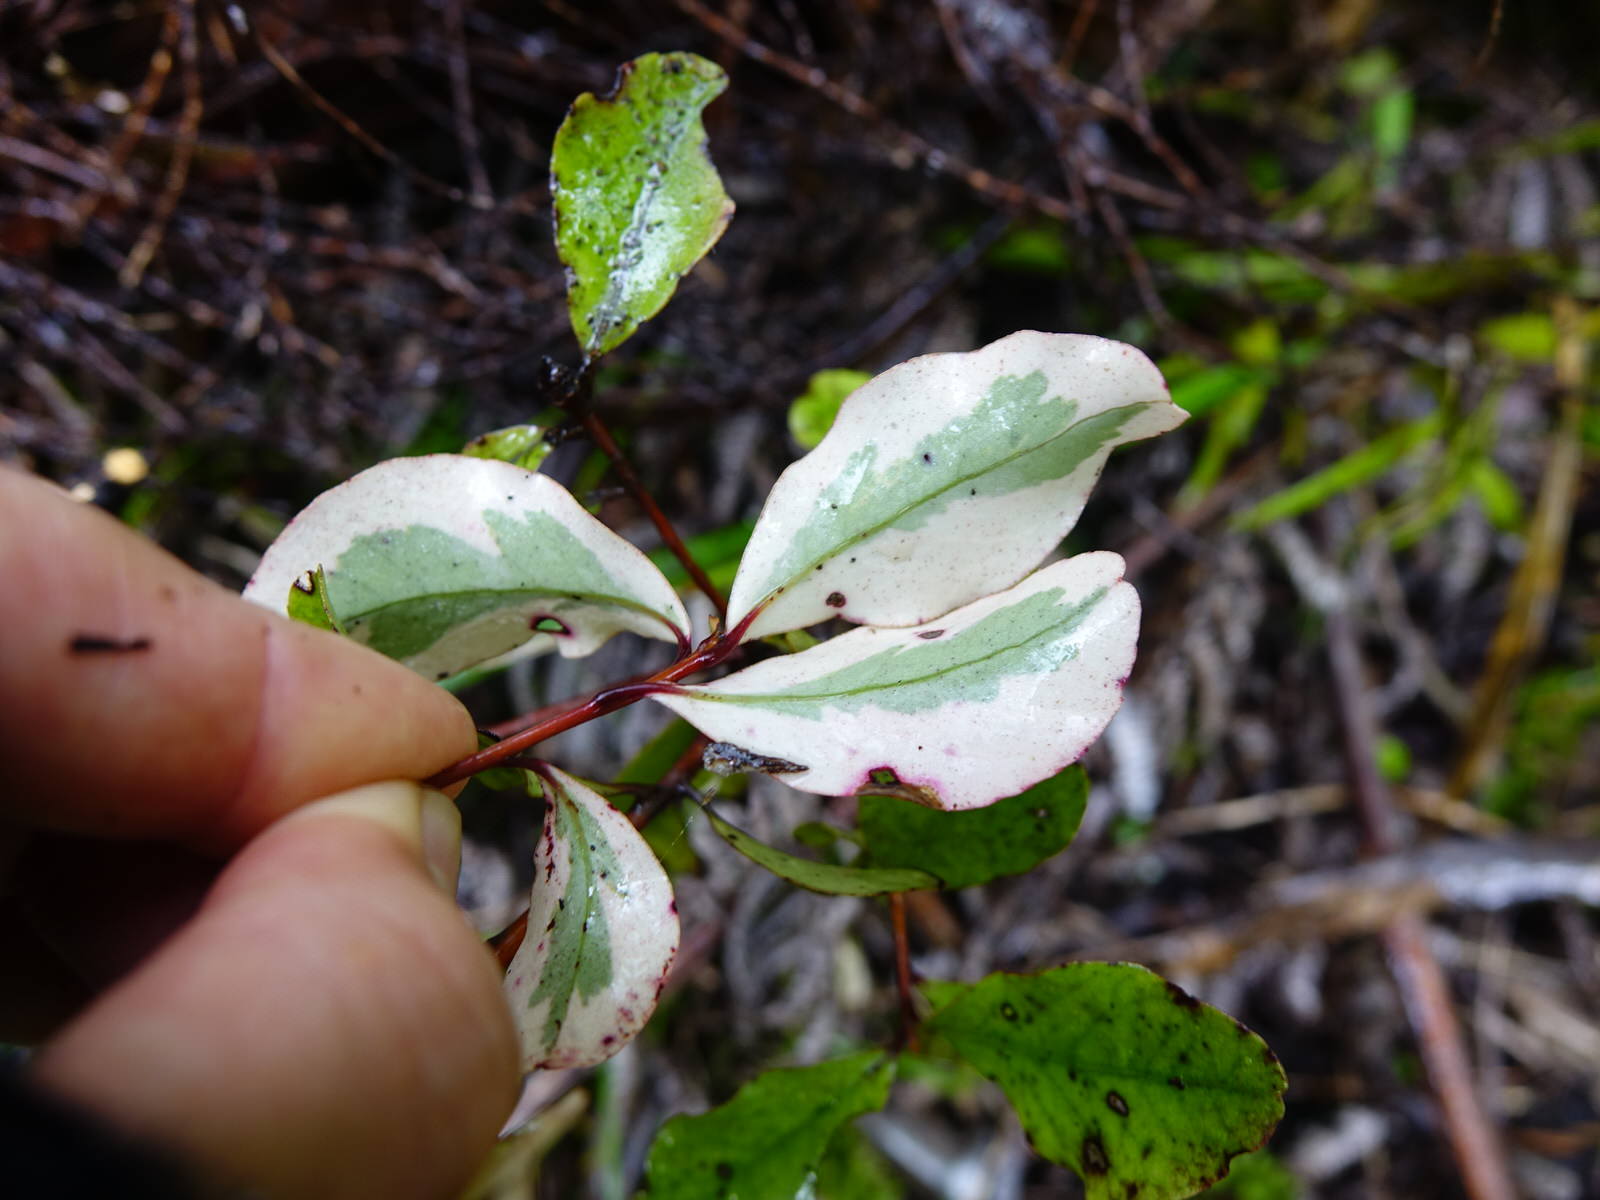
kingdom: Plantae
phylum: Tracheophyta
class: Magnoliopsida
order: Ericales
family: Primulaceae
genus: Myrsine
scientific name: Myrsine australis
